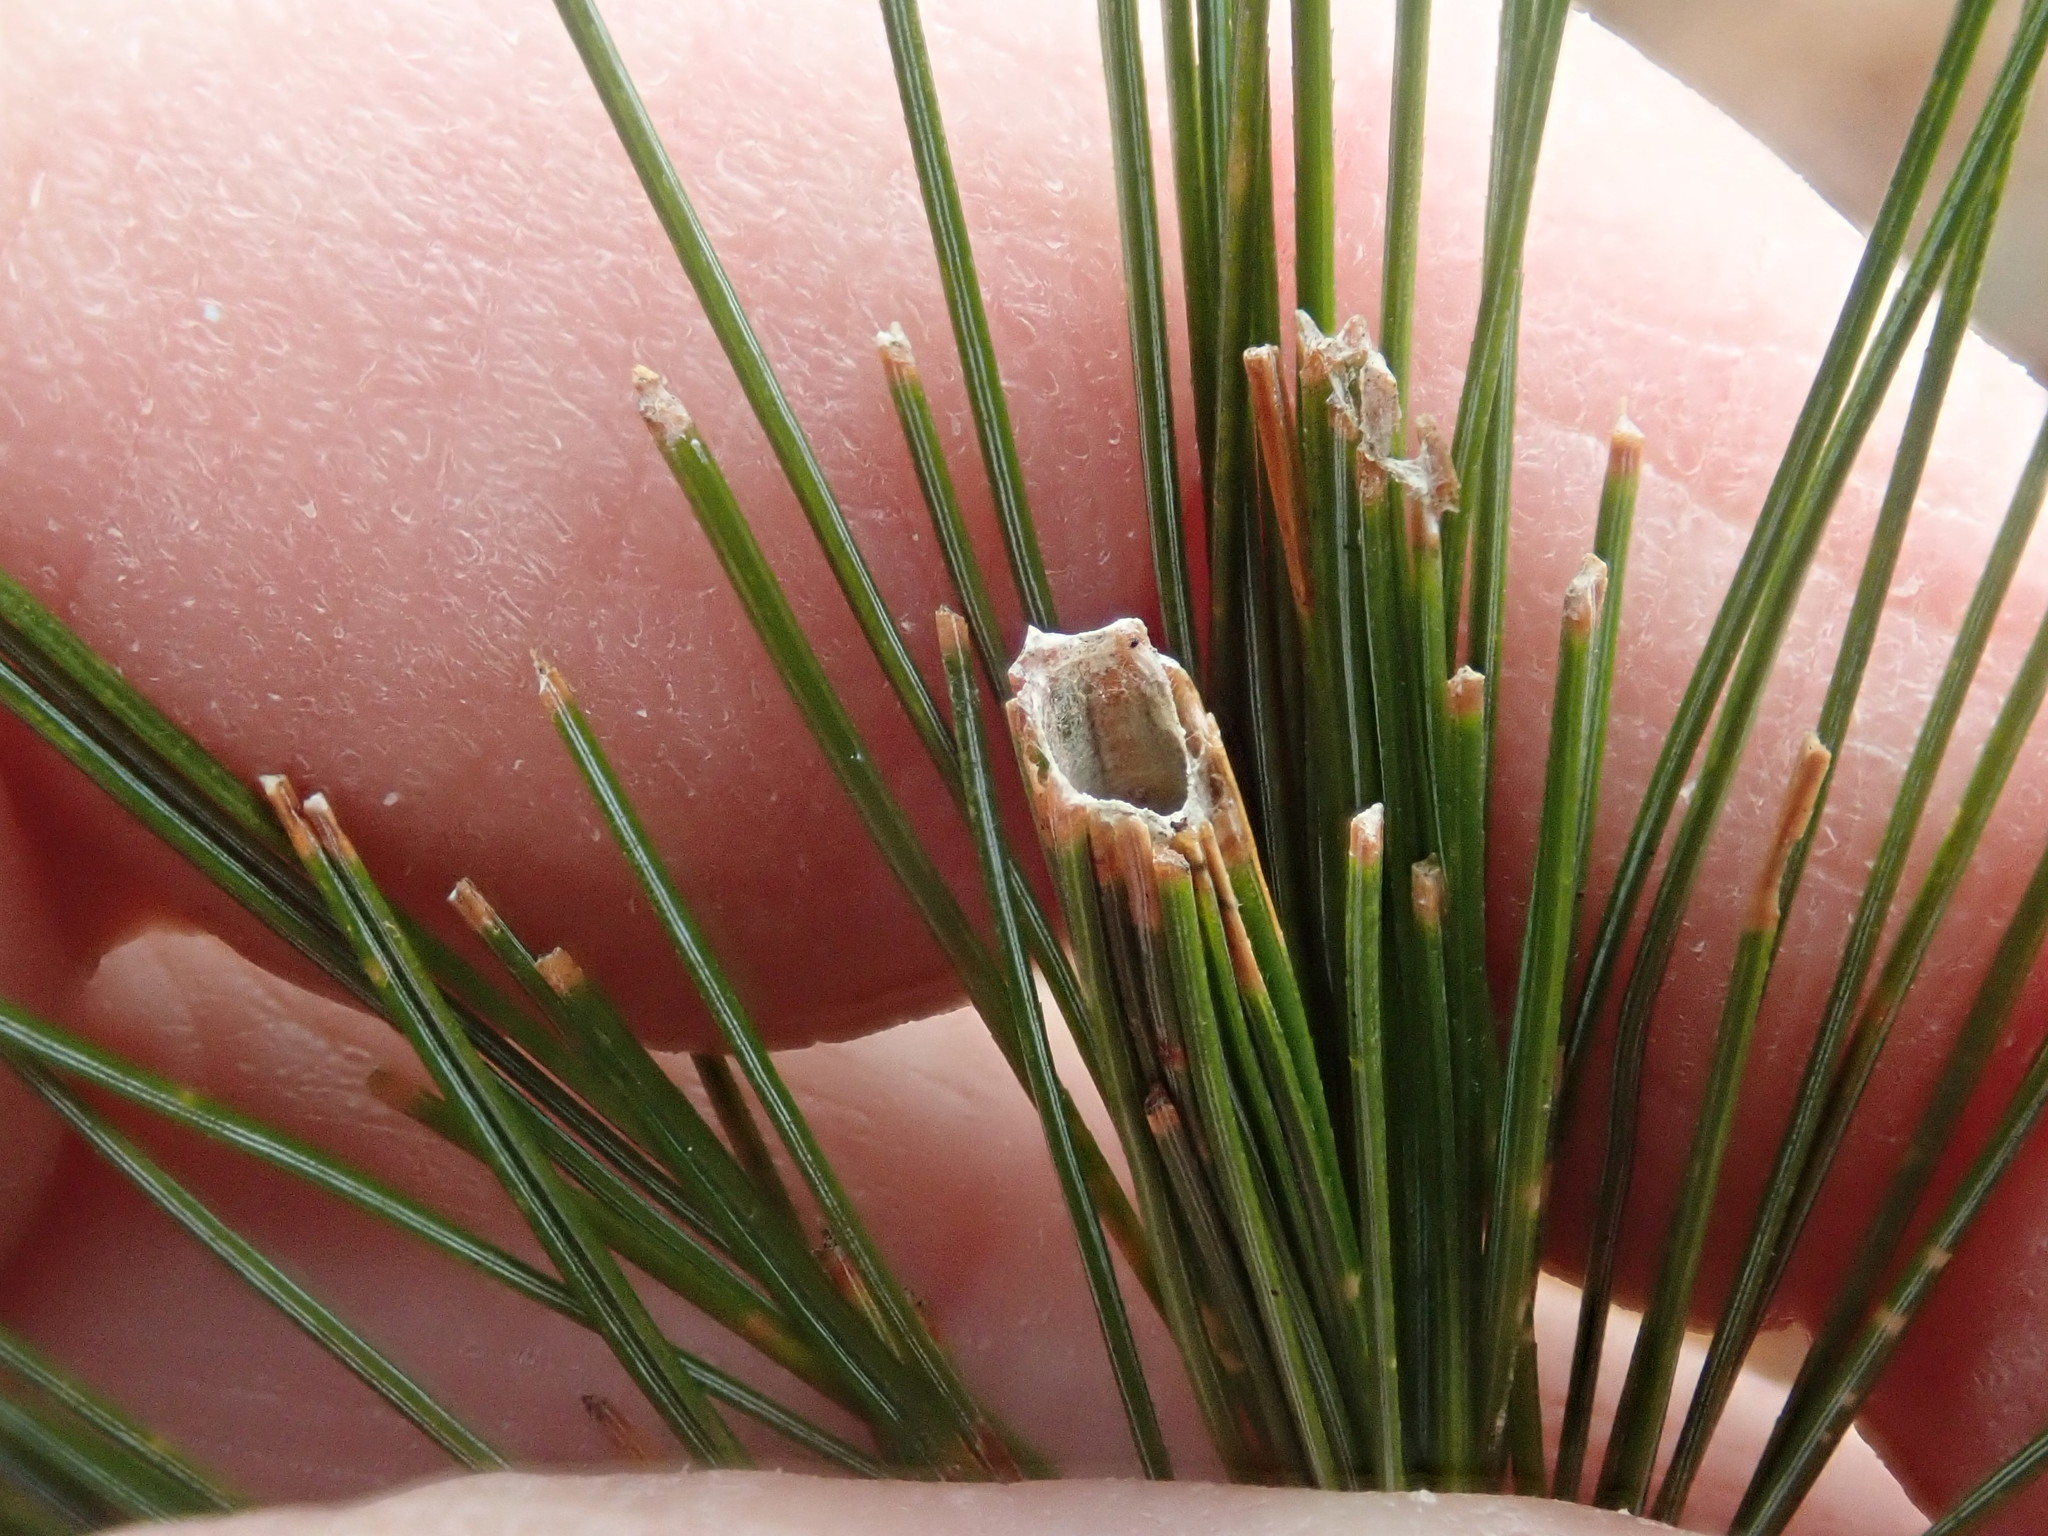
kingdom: Animalia
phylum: Arthropoda
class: Insecta
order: Lepidoptera
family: Tortricidae
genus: Argyrotaenia
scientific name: Argyrotaenia pinatubana
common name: Pine tube moth
